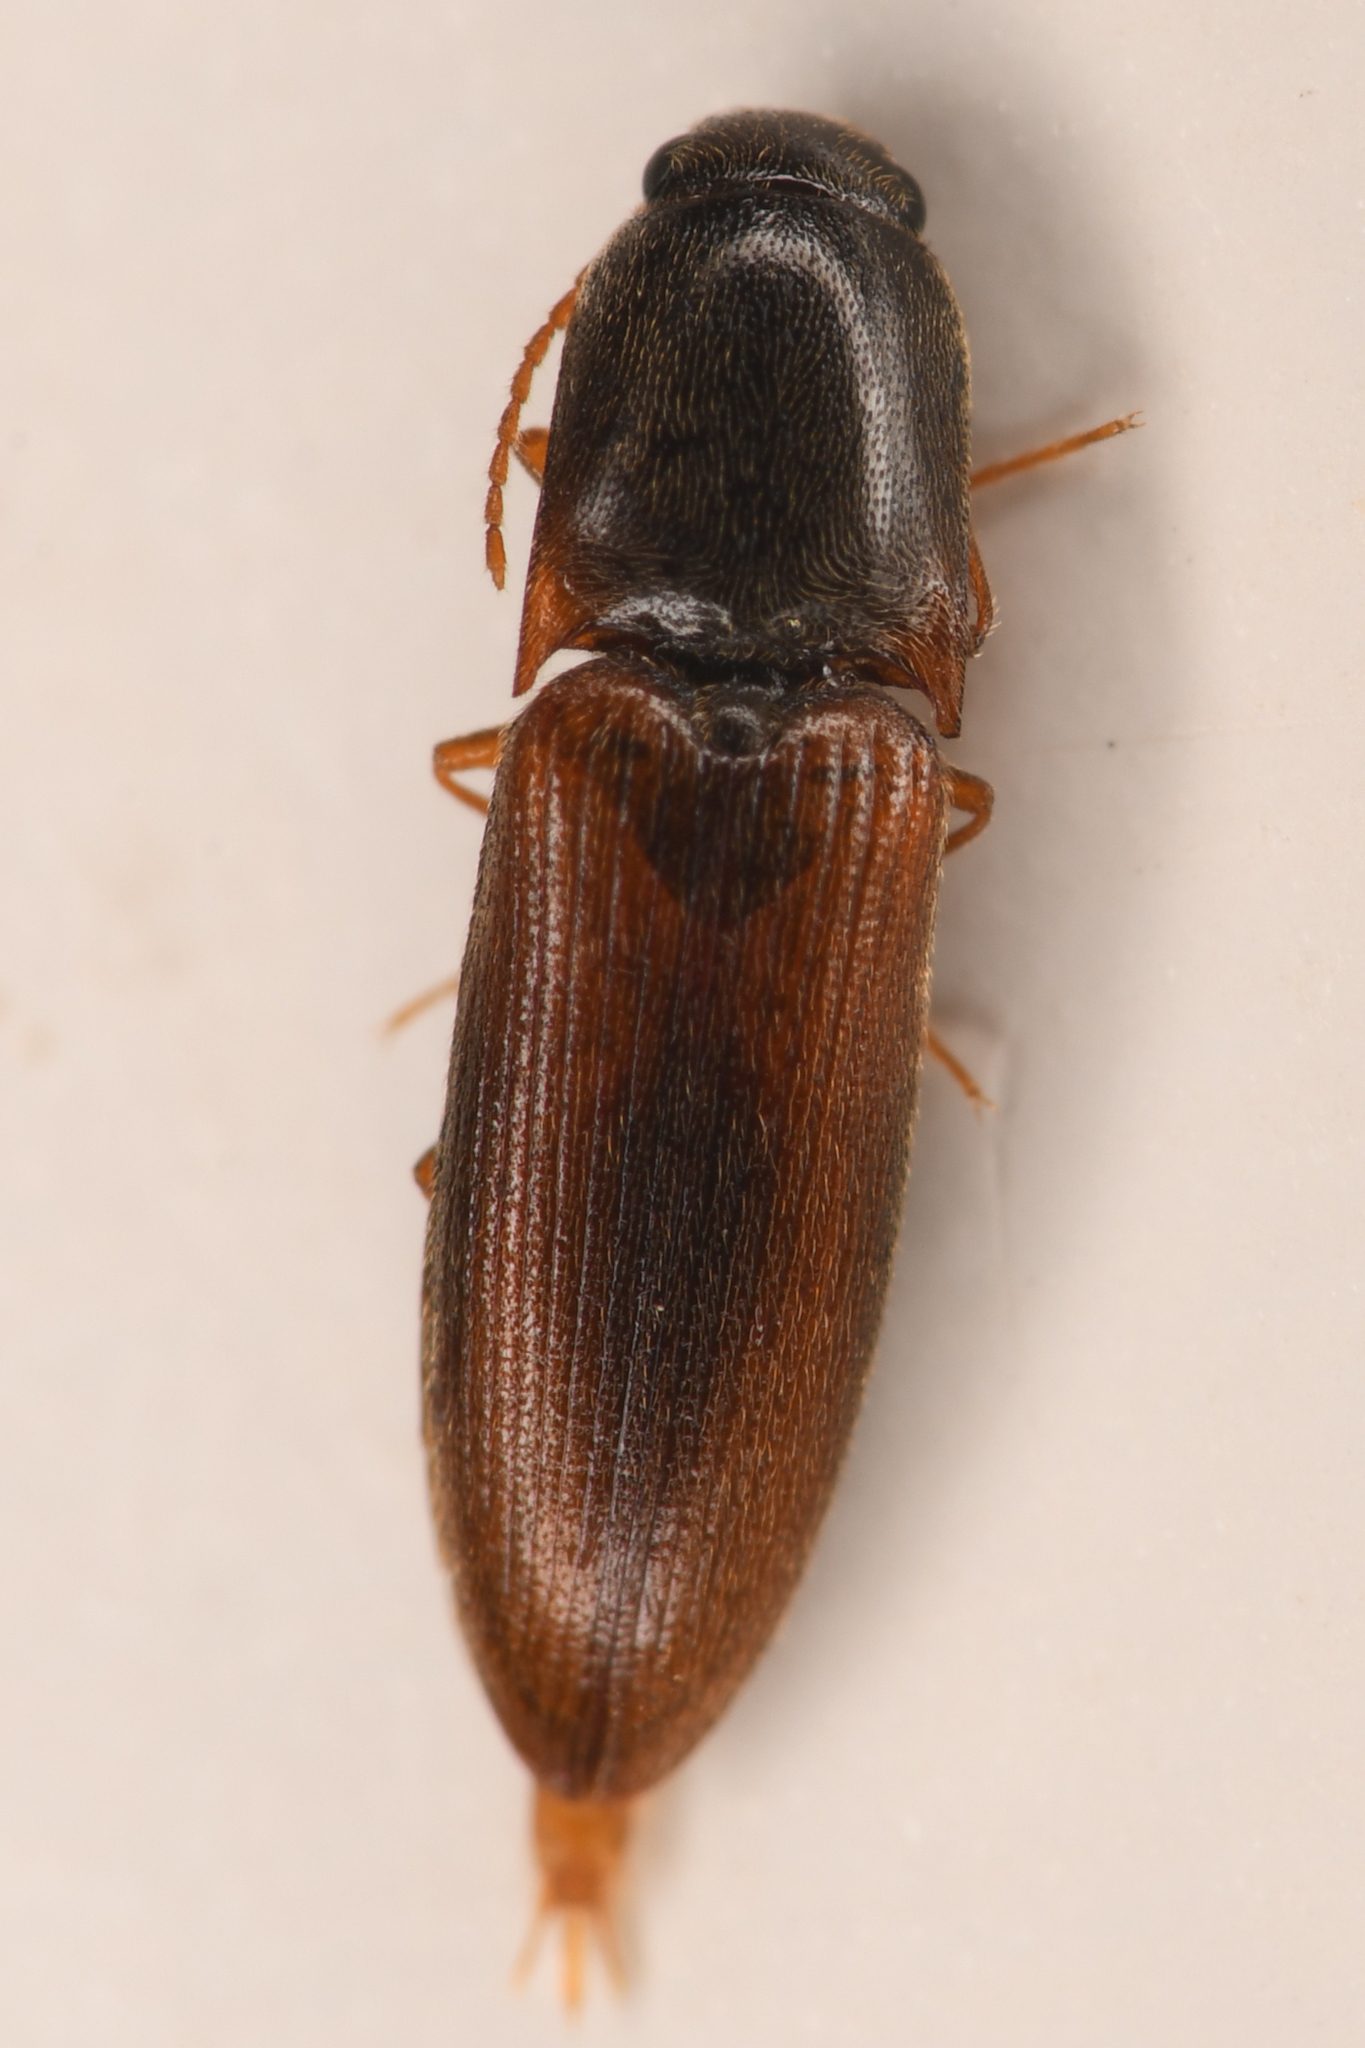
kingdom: Animalia
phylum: Arthropoda
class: Insecta
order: Coleoptera
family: Elateridae
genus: Idolus
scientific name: Idolus debilis
